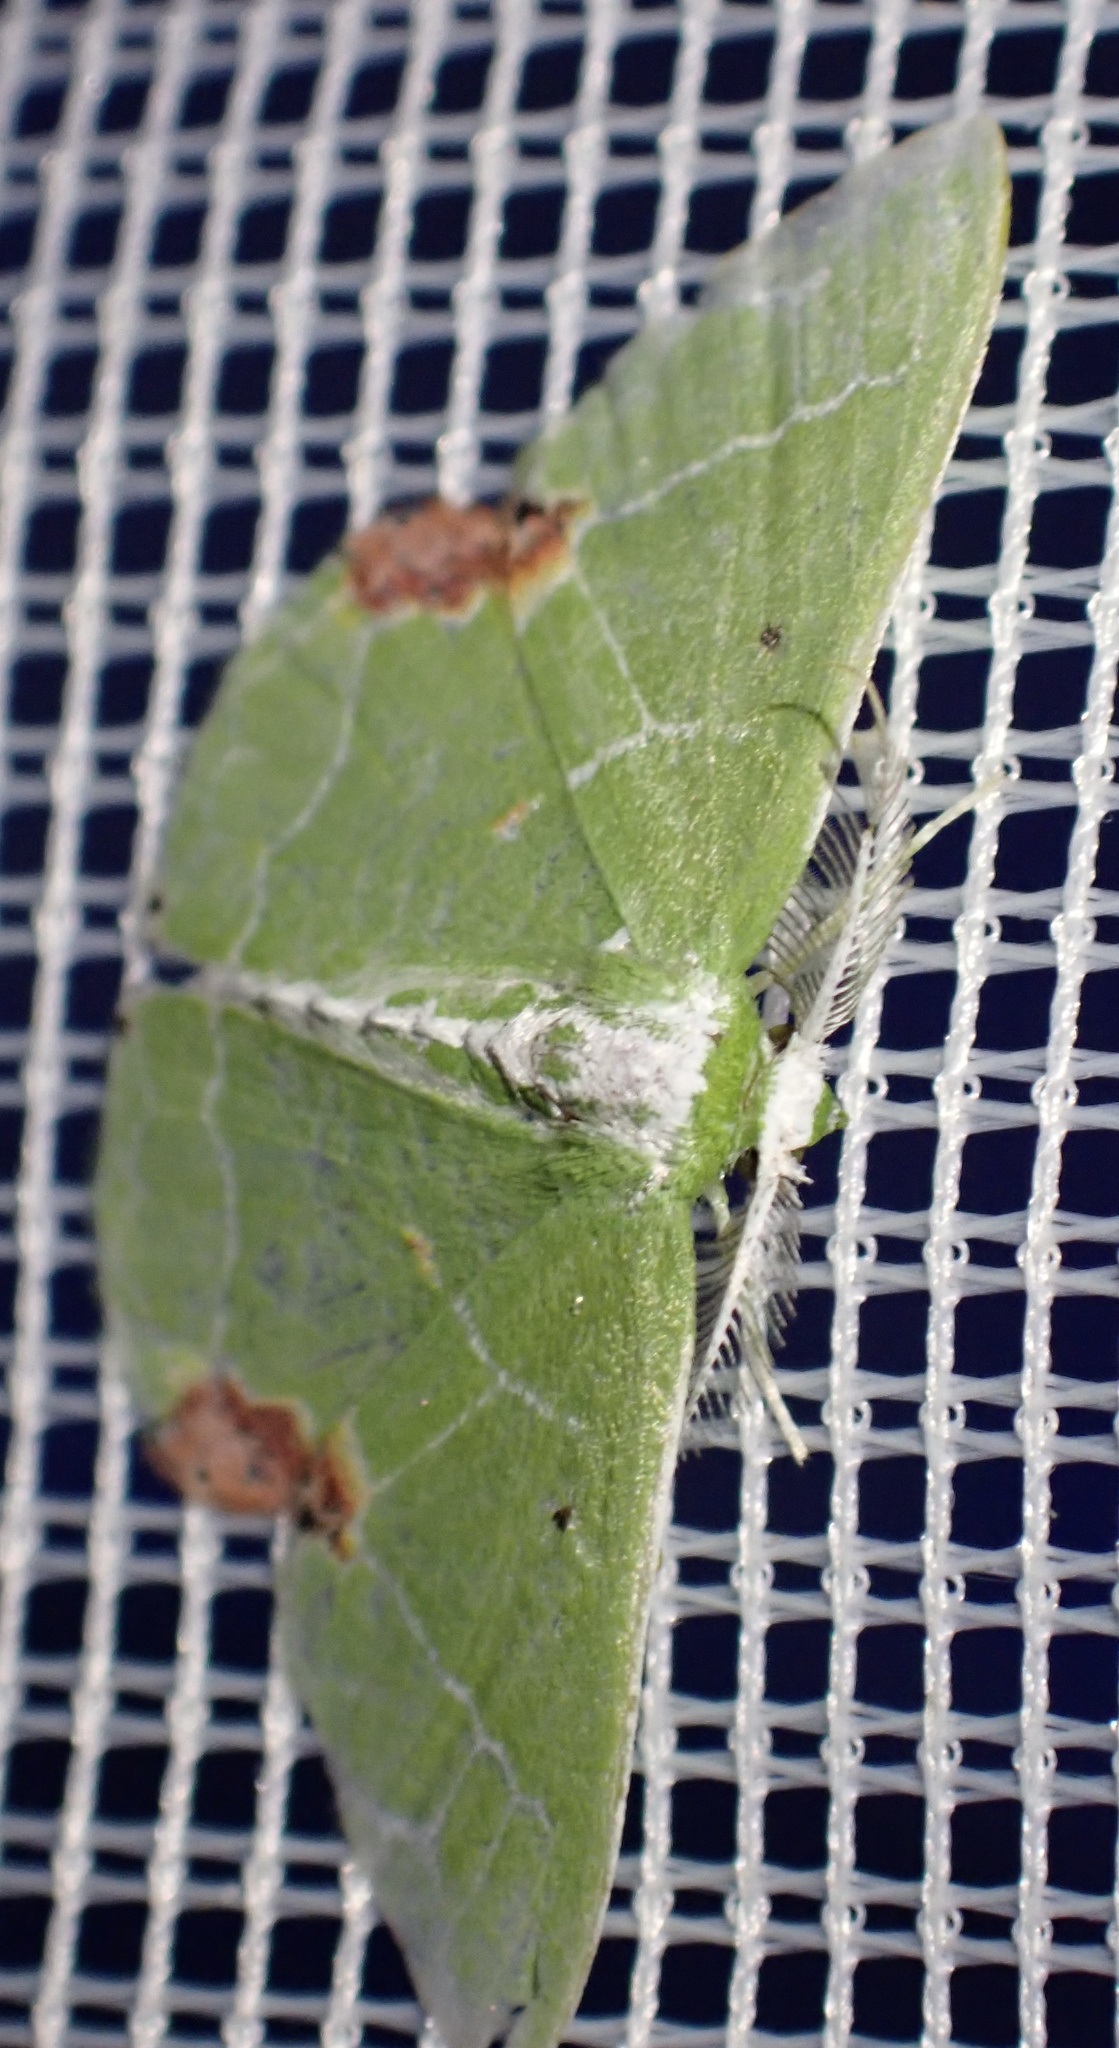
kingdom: Animalia
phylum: Arthropoda
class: Insecta
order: Lepidoptera
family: Geometridae
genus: Protuliocnemis
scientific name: Protuliocnemis biplagiata
